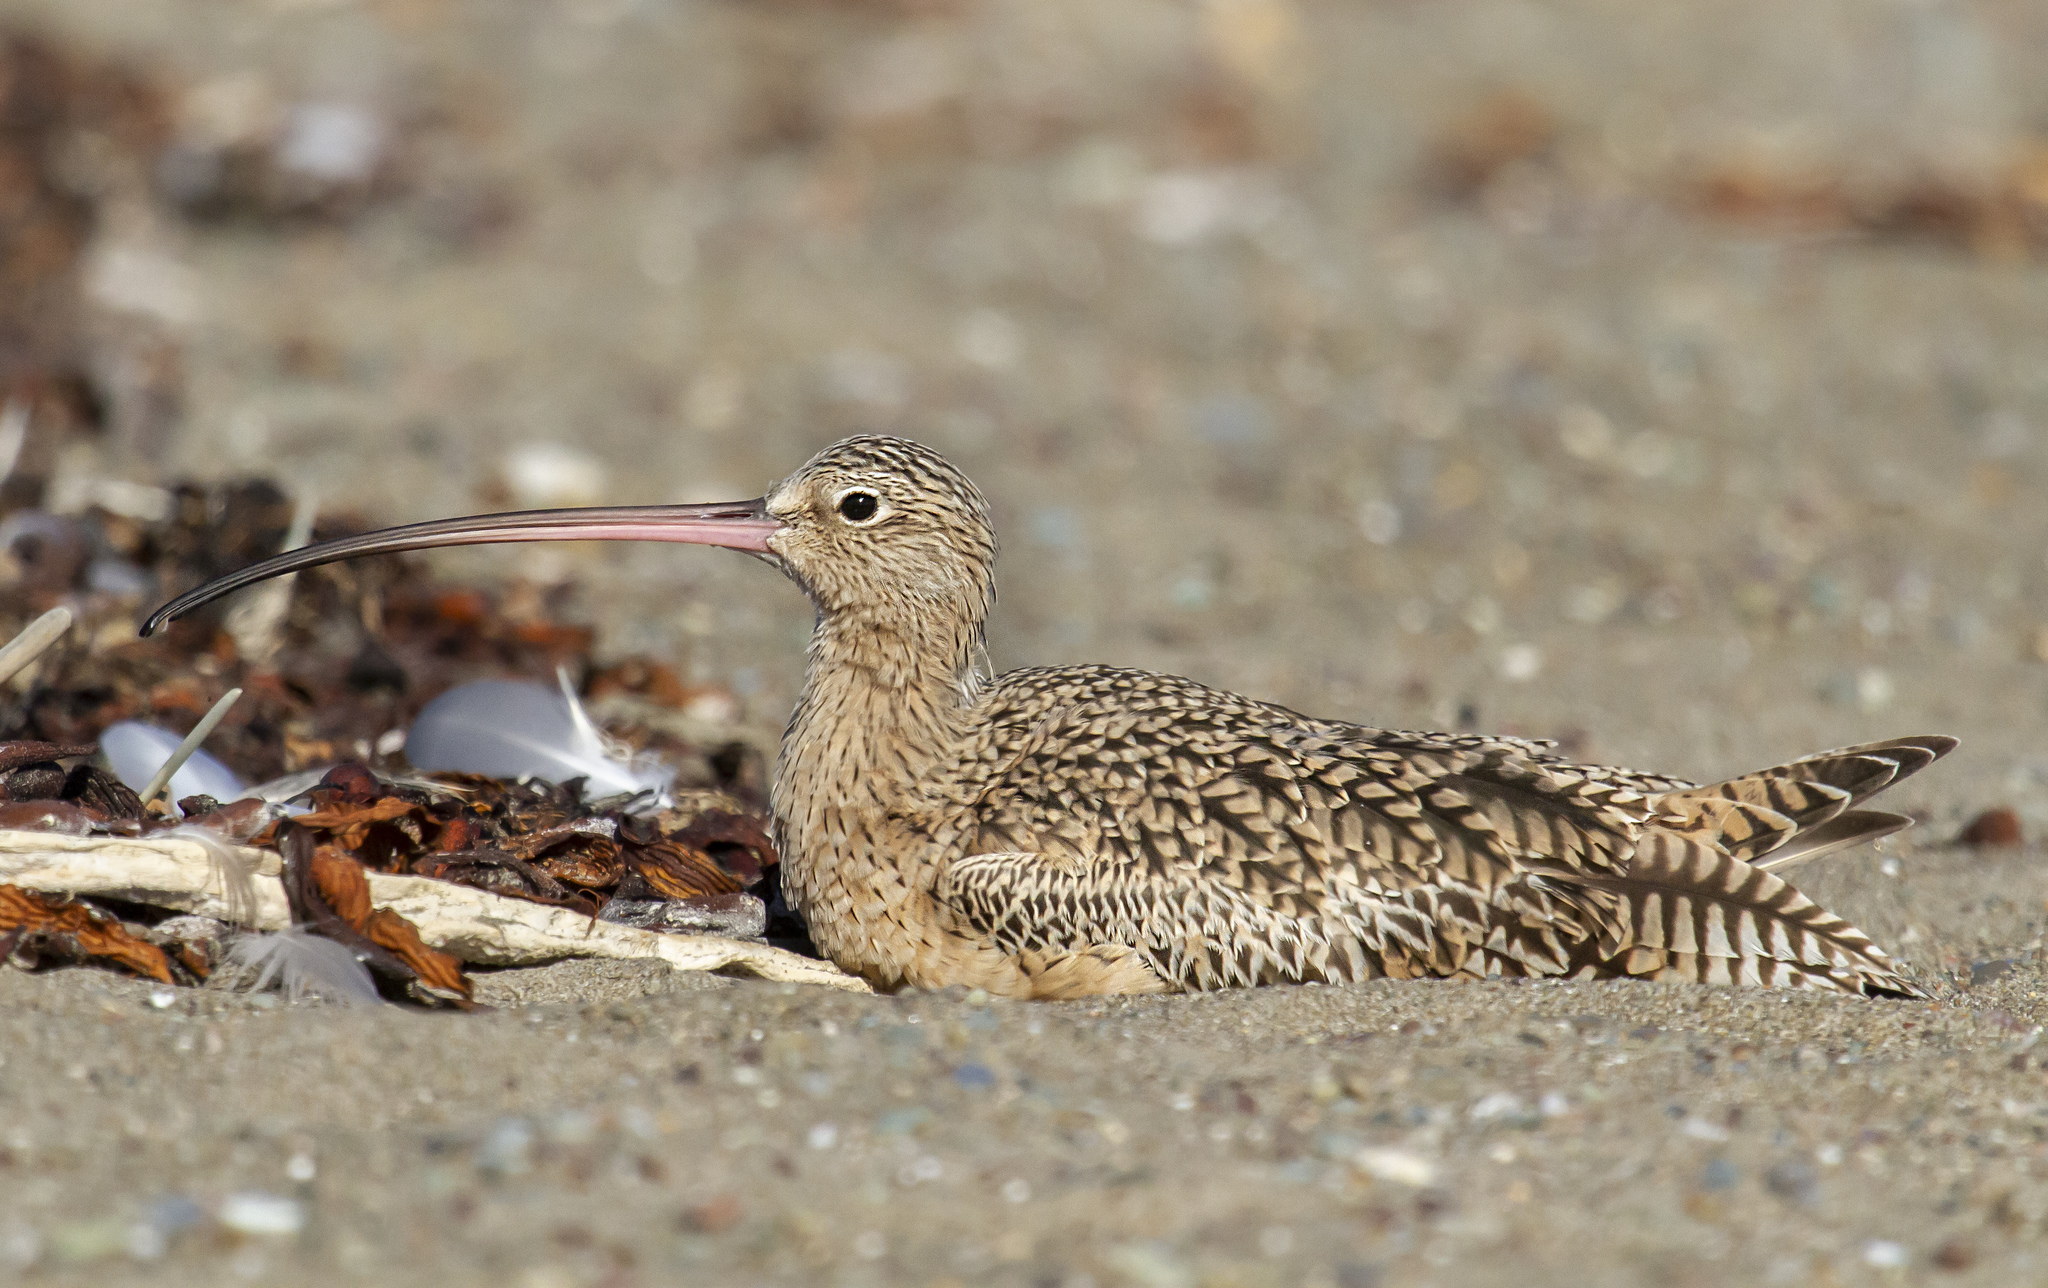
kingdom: Animalia
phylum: Chordata
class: Aves
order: Charadriiformes
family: Scolopacidae
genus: Numenius
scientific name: Numenius americanus
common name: Long-billed curlew
